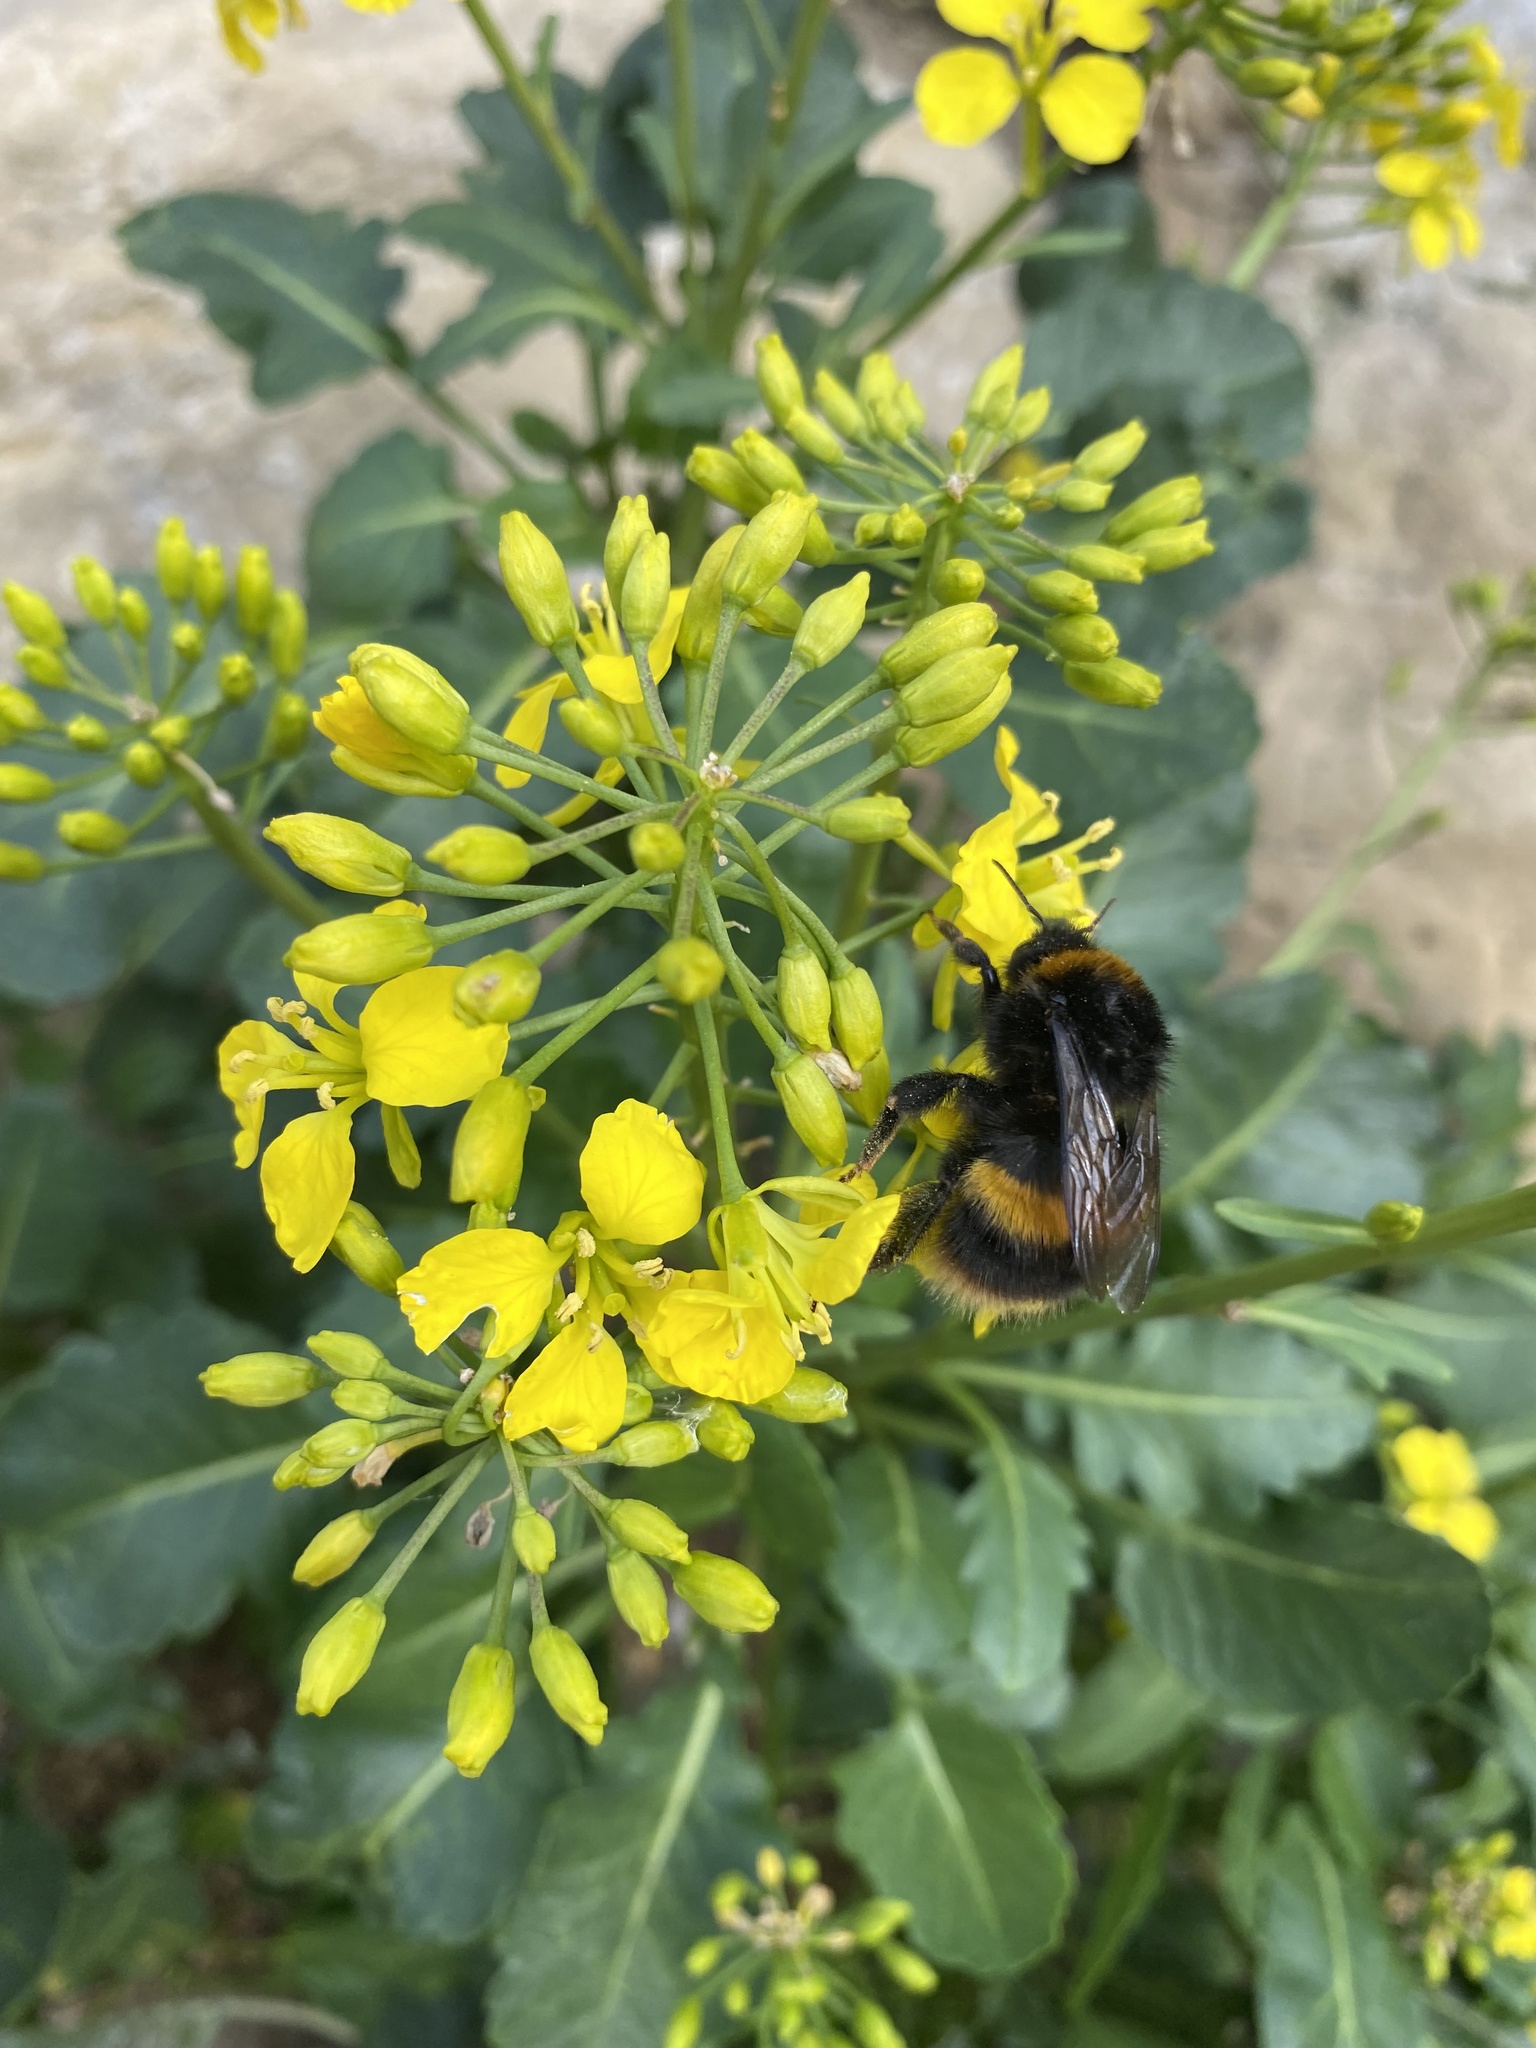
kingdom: Animalia
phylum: Arthropoda
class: Insecta
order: Hymenoptera
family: Apidae
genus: Bombus
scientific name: Bombus terrestris
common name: Buff-tailed bumblebee
